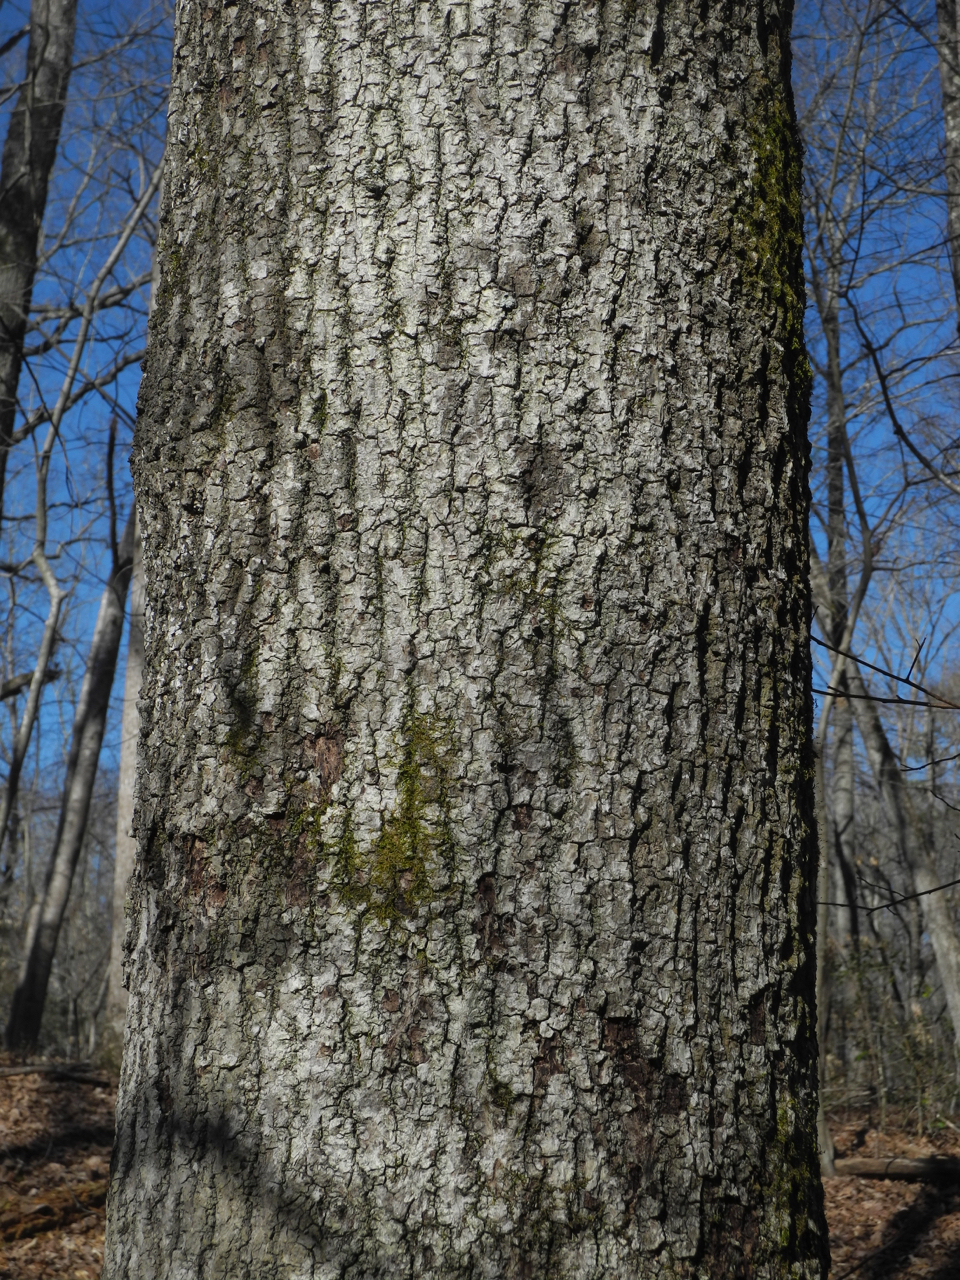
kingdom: Plantae
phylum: Tracheophyta
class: Magnoliopsida
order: Fagales
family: Juglandaceae
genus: Carya
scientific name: Carya alba
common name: Mockernut hickory
